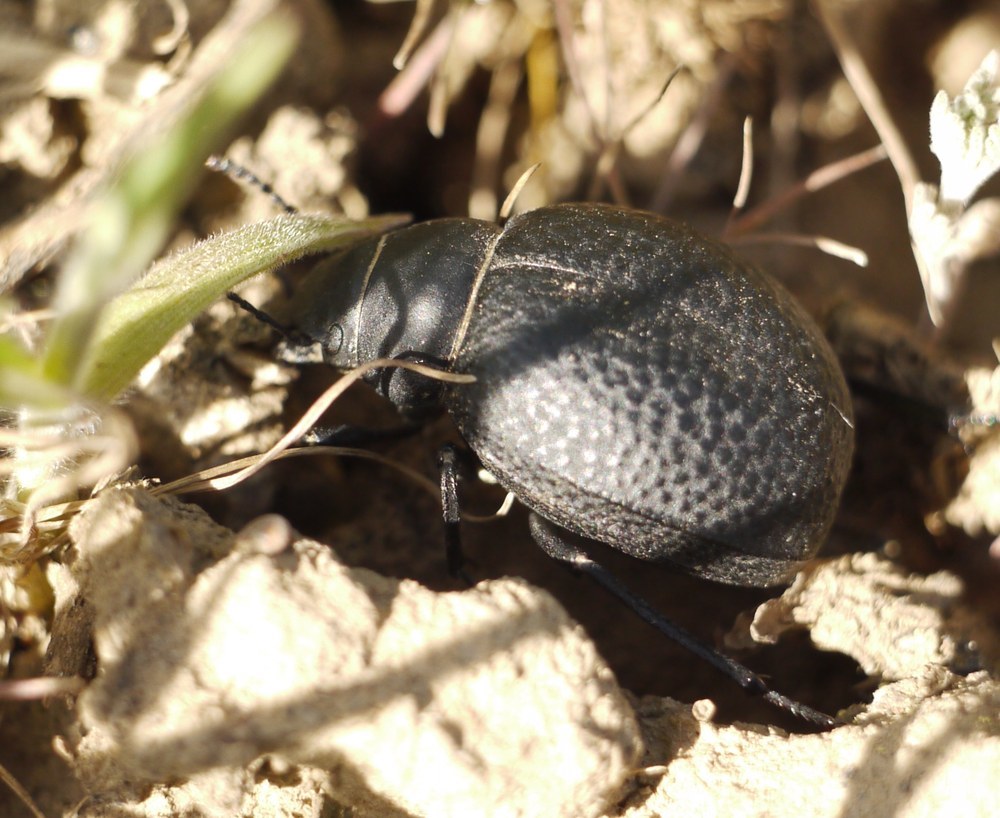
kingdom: Animalia
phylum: Arthropoda
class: Insecta
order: Coleoptera
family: Tenebrionidae
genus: Pimelia
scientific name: Pimelia subglobosa
